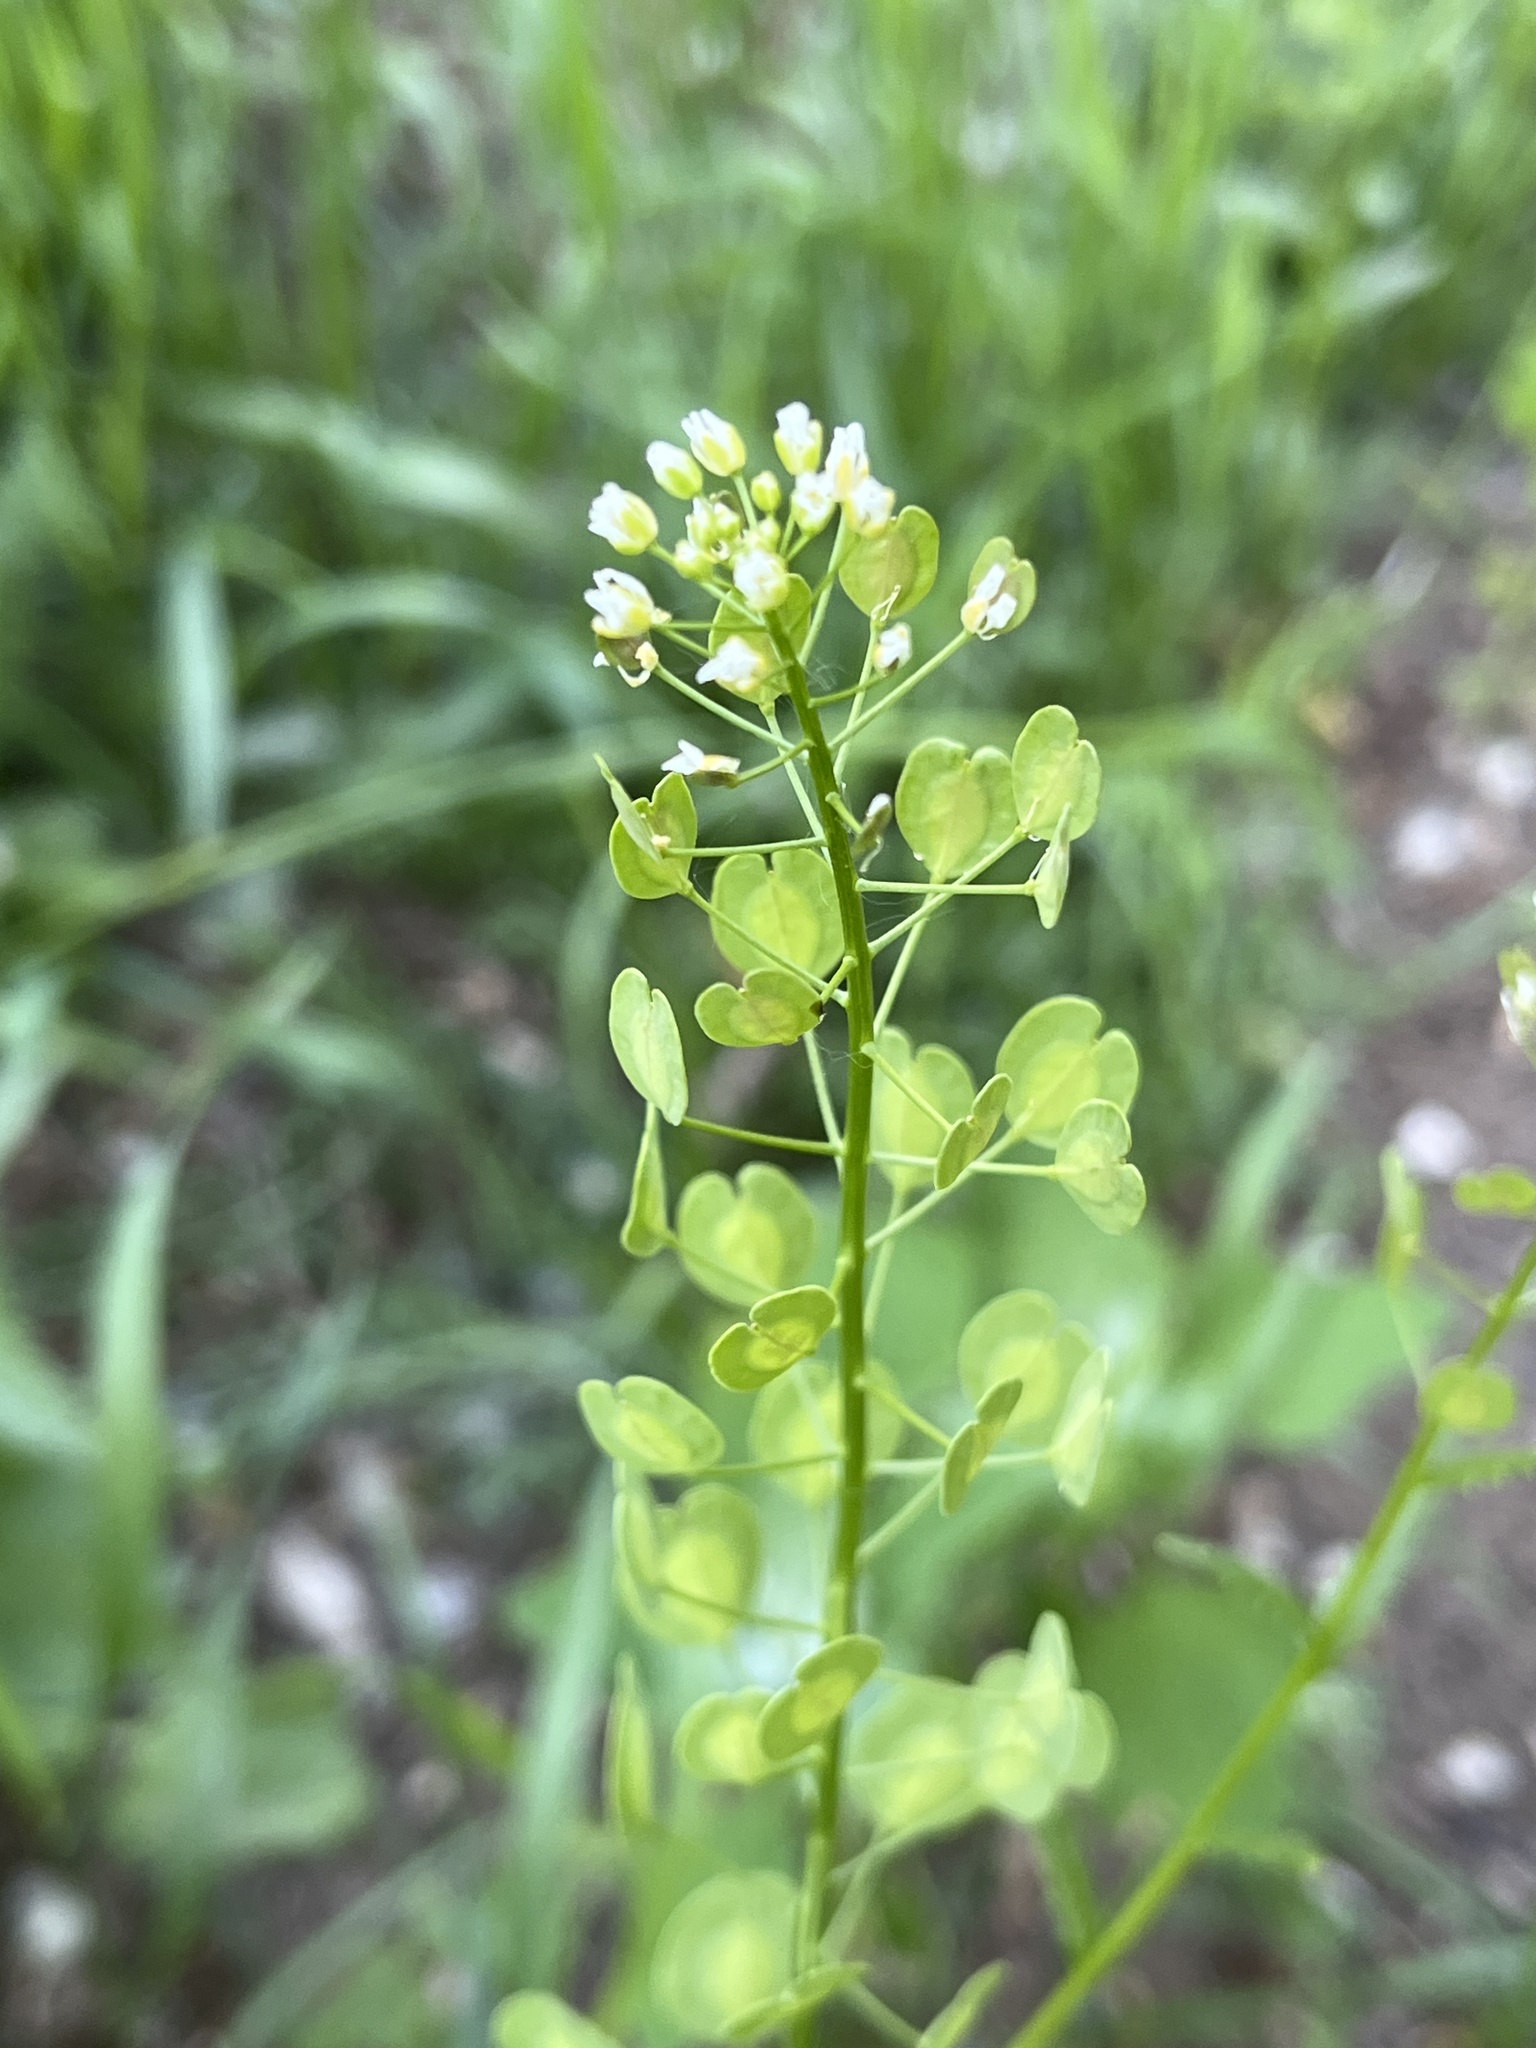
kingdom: Plantae
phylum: Tracheophyta
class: Magnoliopsida
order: Brassicales
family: Brassicaceae
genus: Thlaspi
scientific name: Thlaspi arvense
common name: Field pennycress
